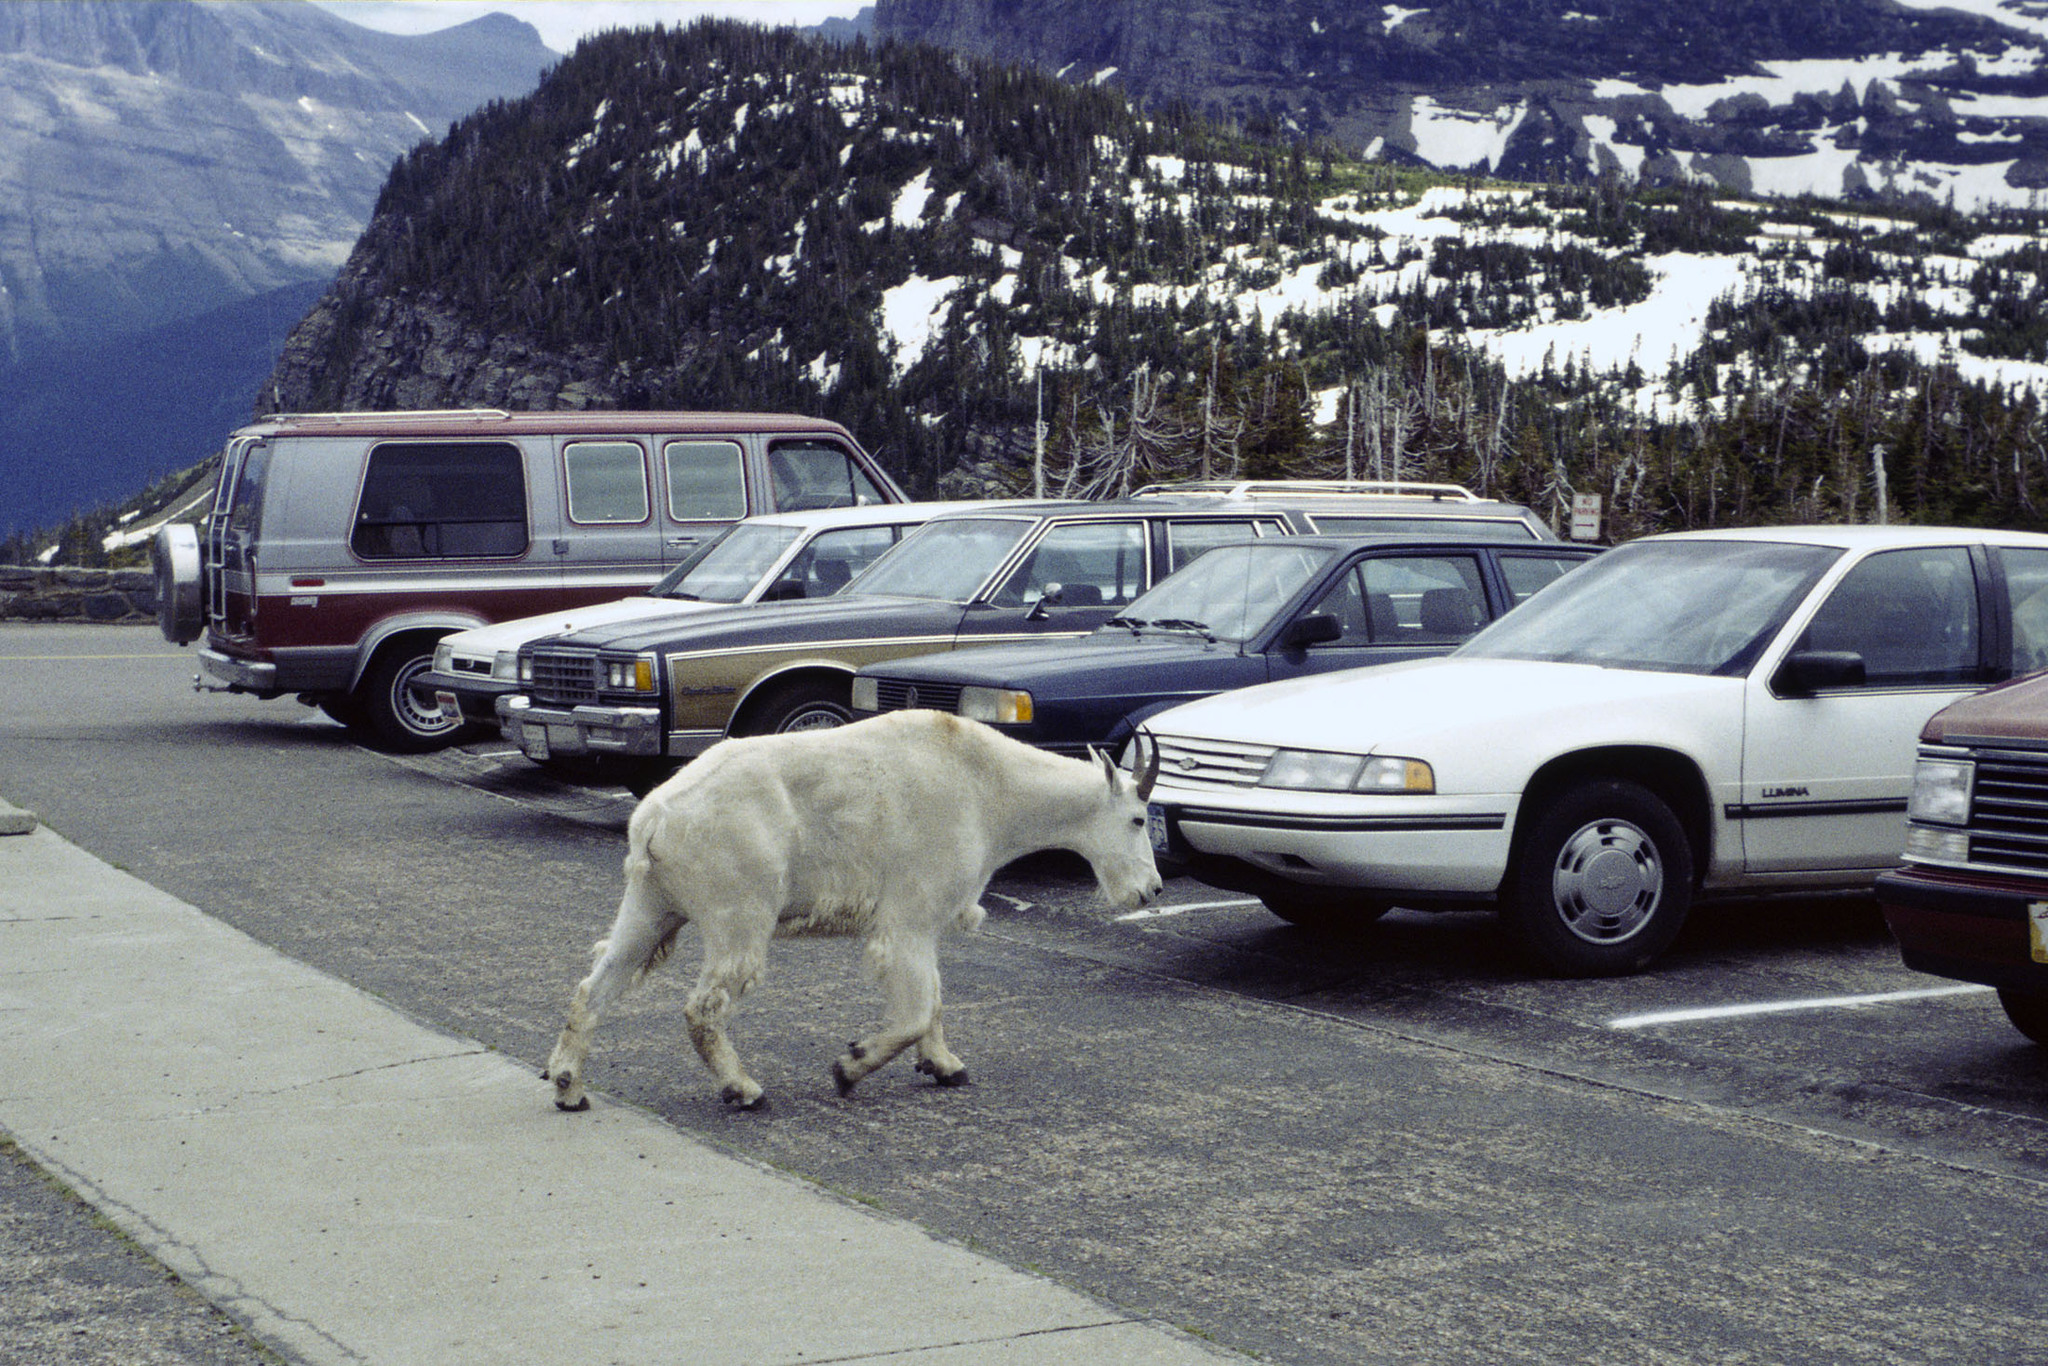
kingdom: Animalia
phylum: Chordata
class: Mammalia
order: Artiodactyla
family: Bovidae
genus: Oreamnos
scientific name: Oreamnos americanus
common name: Mountain goat
